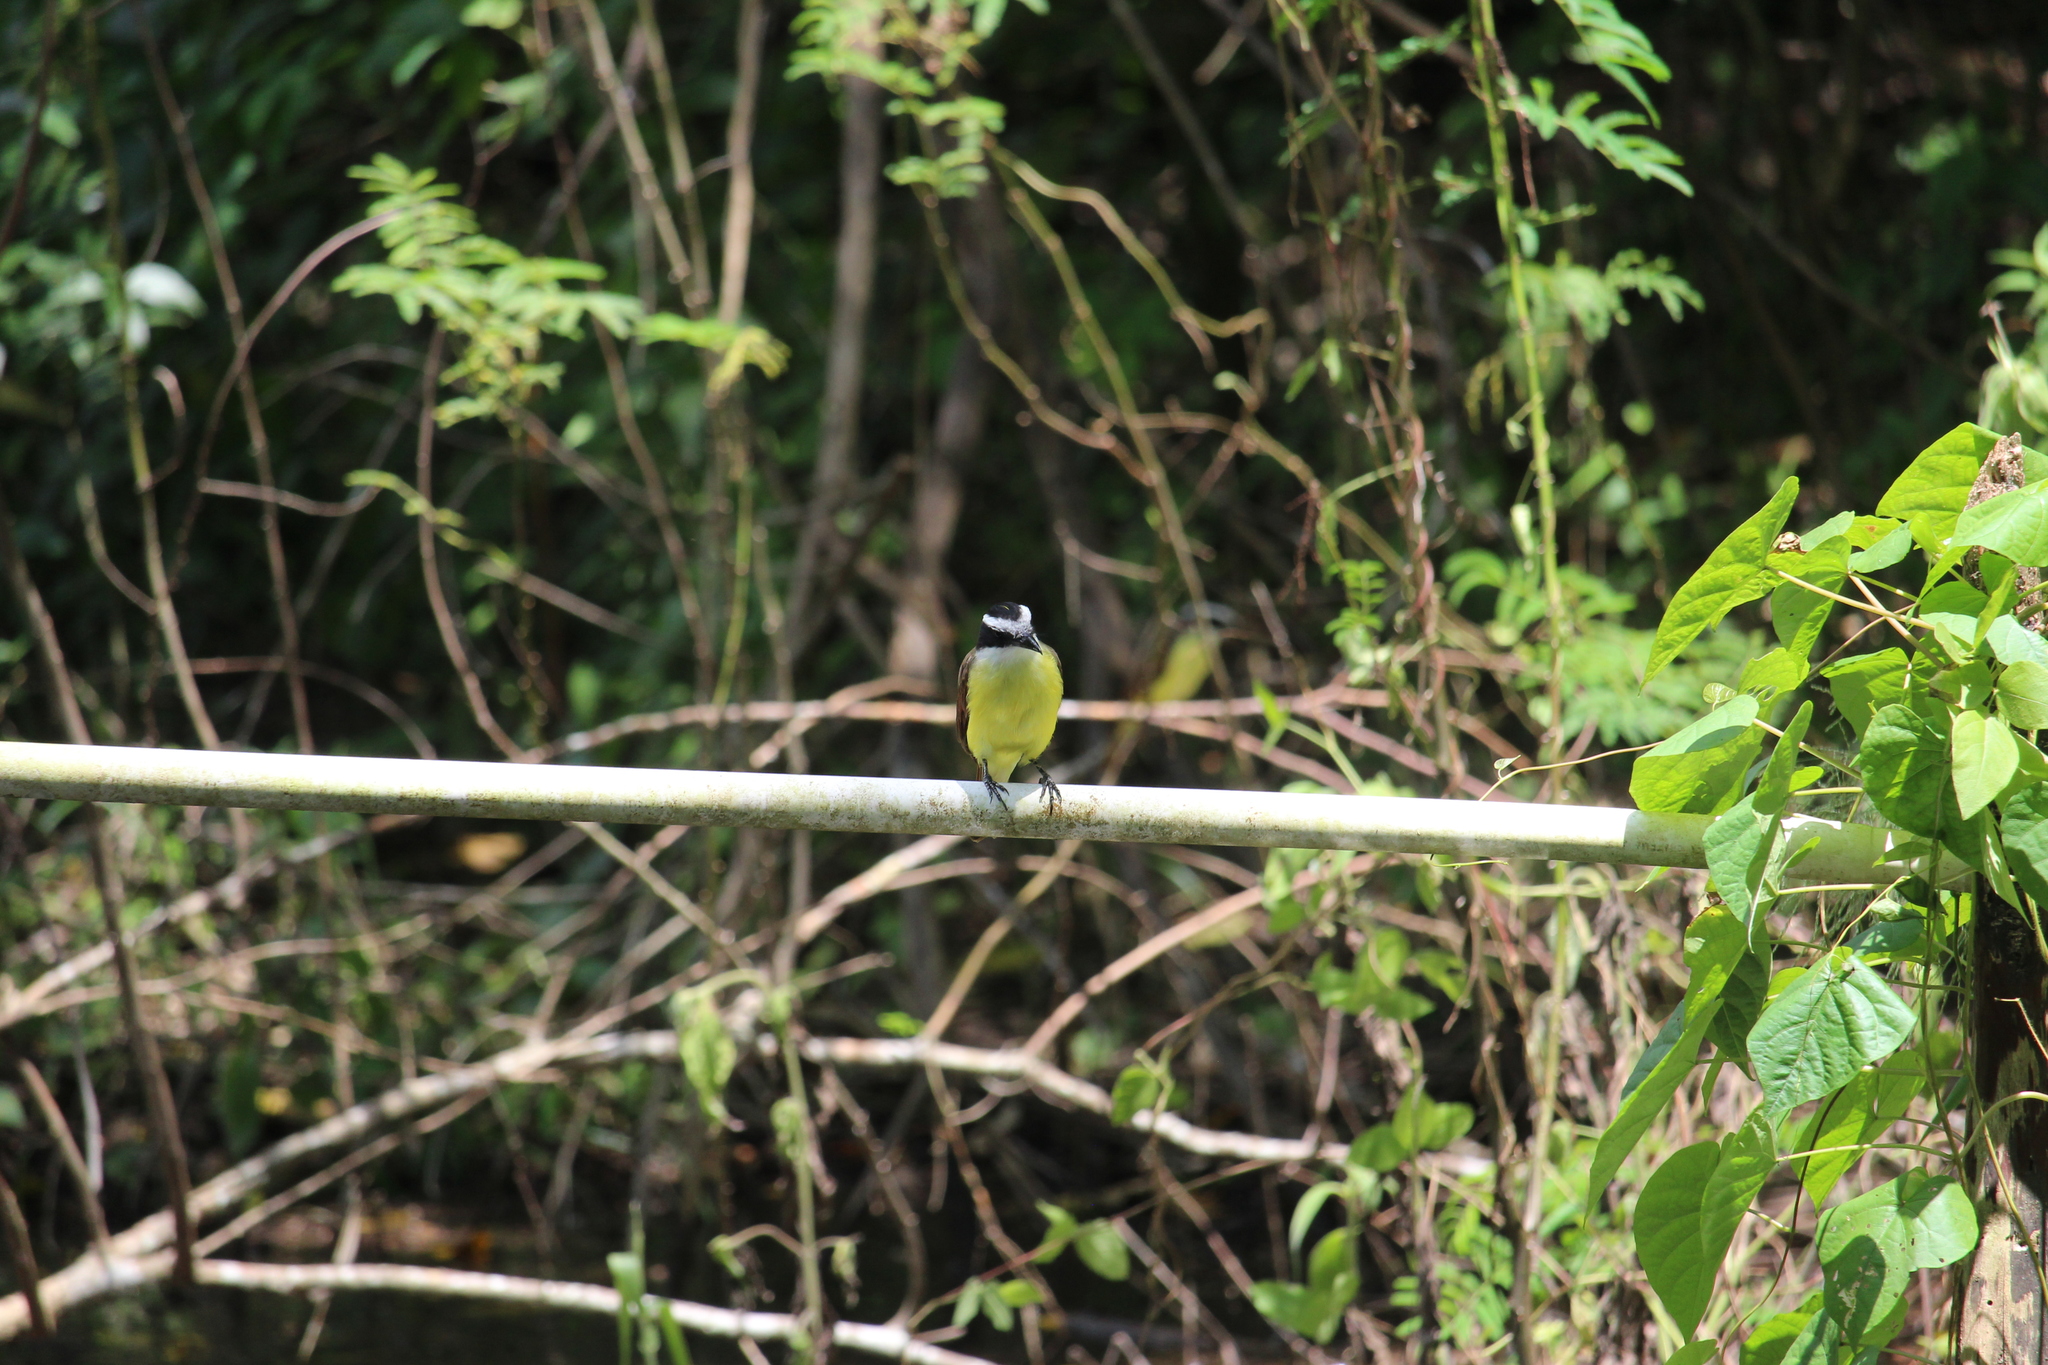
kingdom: Animalia
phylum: Chordata
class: Aves
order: Passeriformes
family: Tyrannidae
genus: Pitangus
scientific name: Pitangus sulphuratus
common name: Great kiskadee
